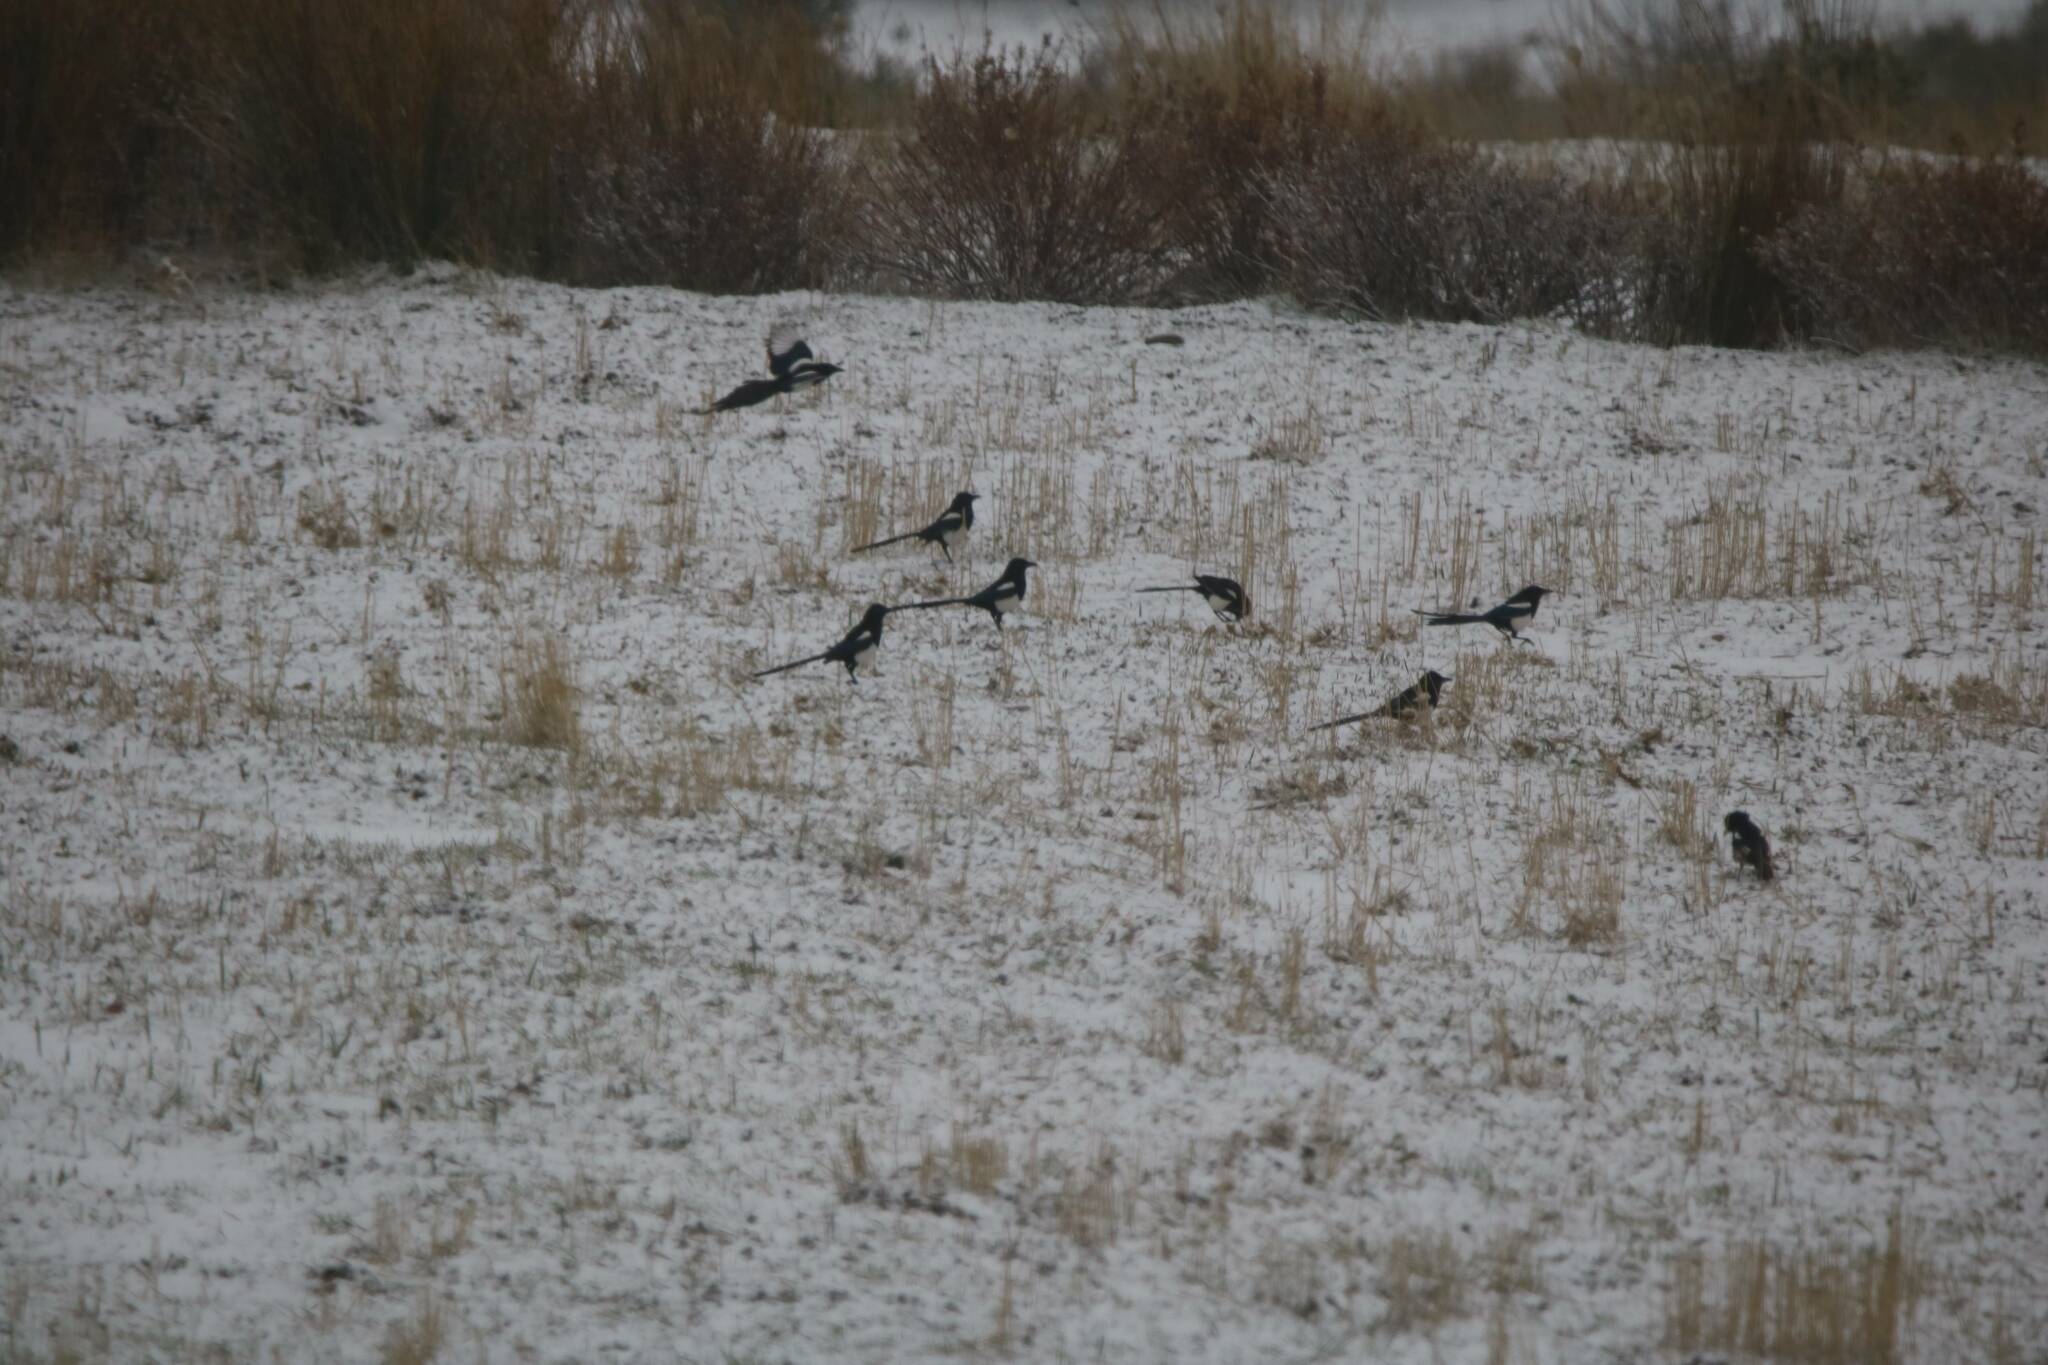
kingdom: Animalia
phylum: Chordata
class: Aves
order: Passeriformes
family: Corvidae
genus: Pica
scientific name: Pica mauritanica
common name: Maghreb magpie
